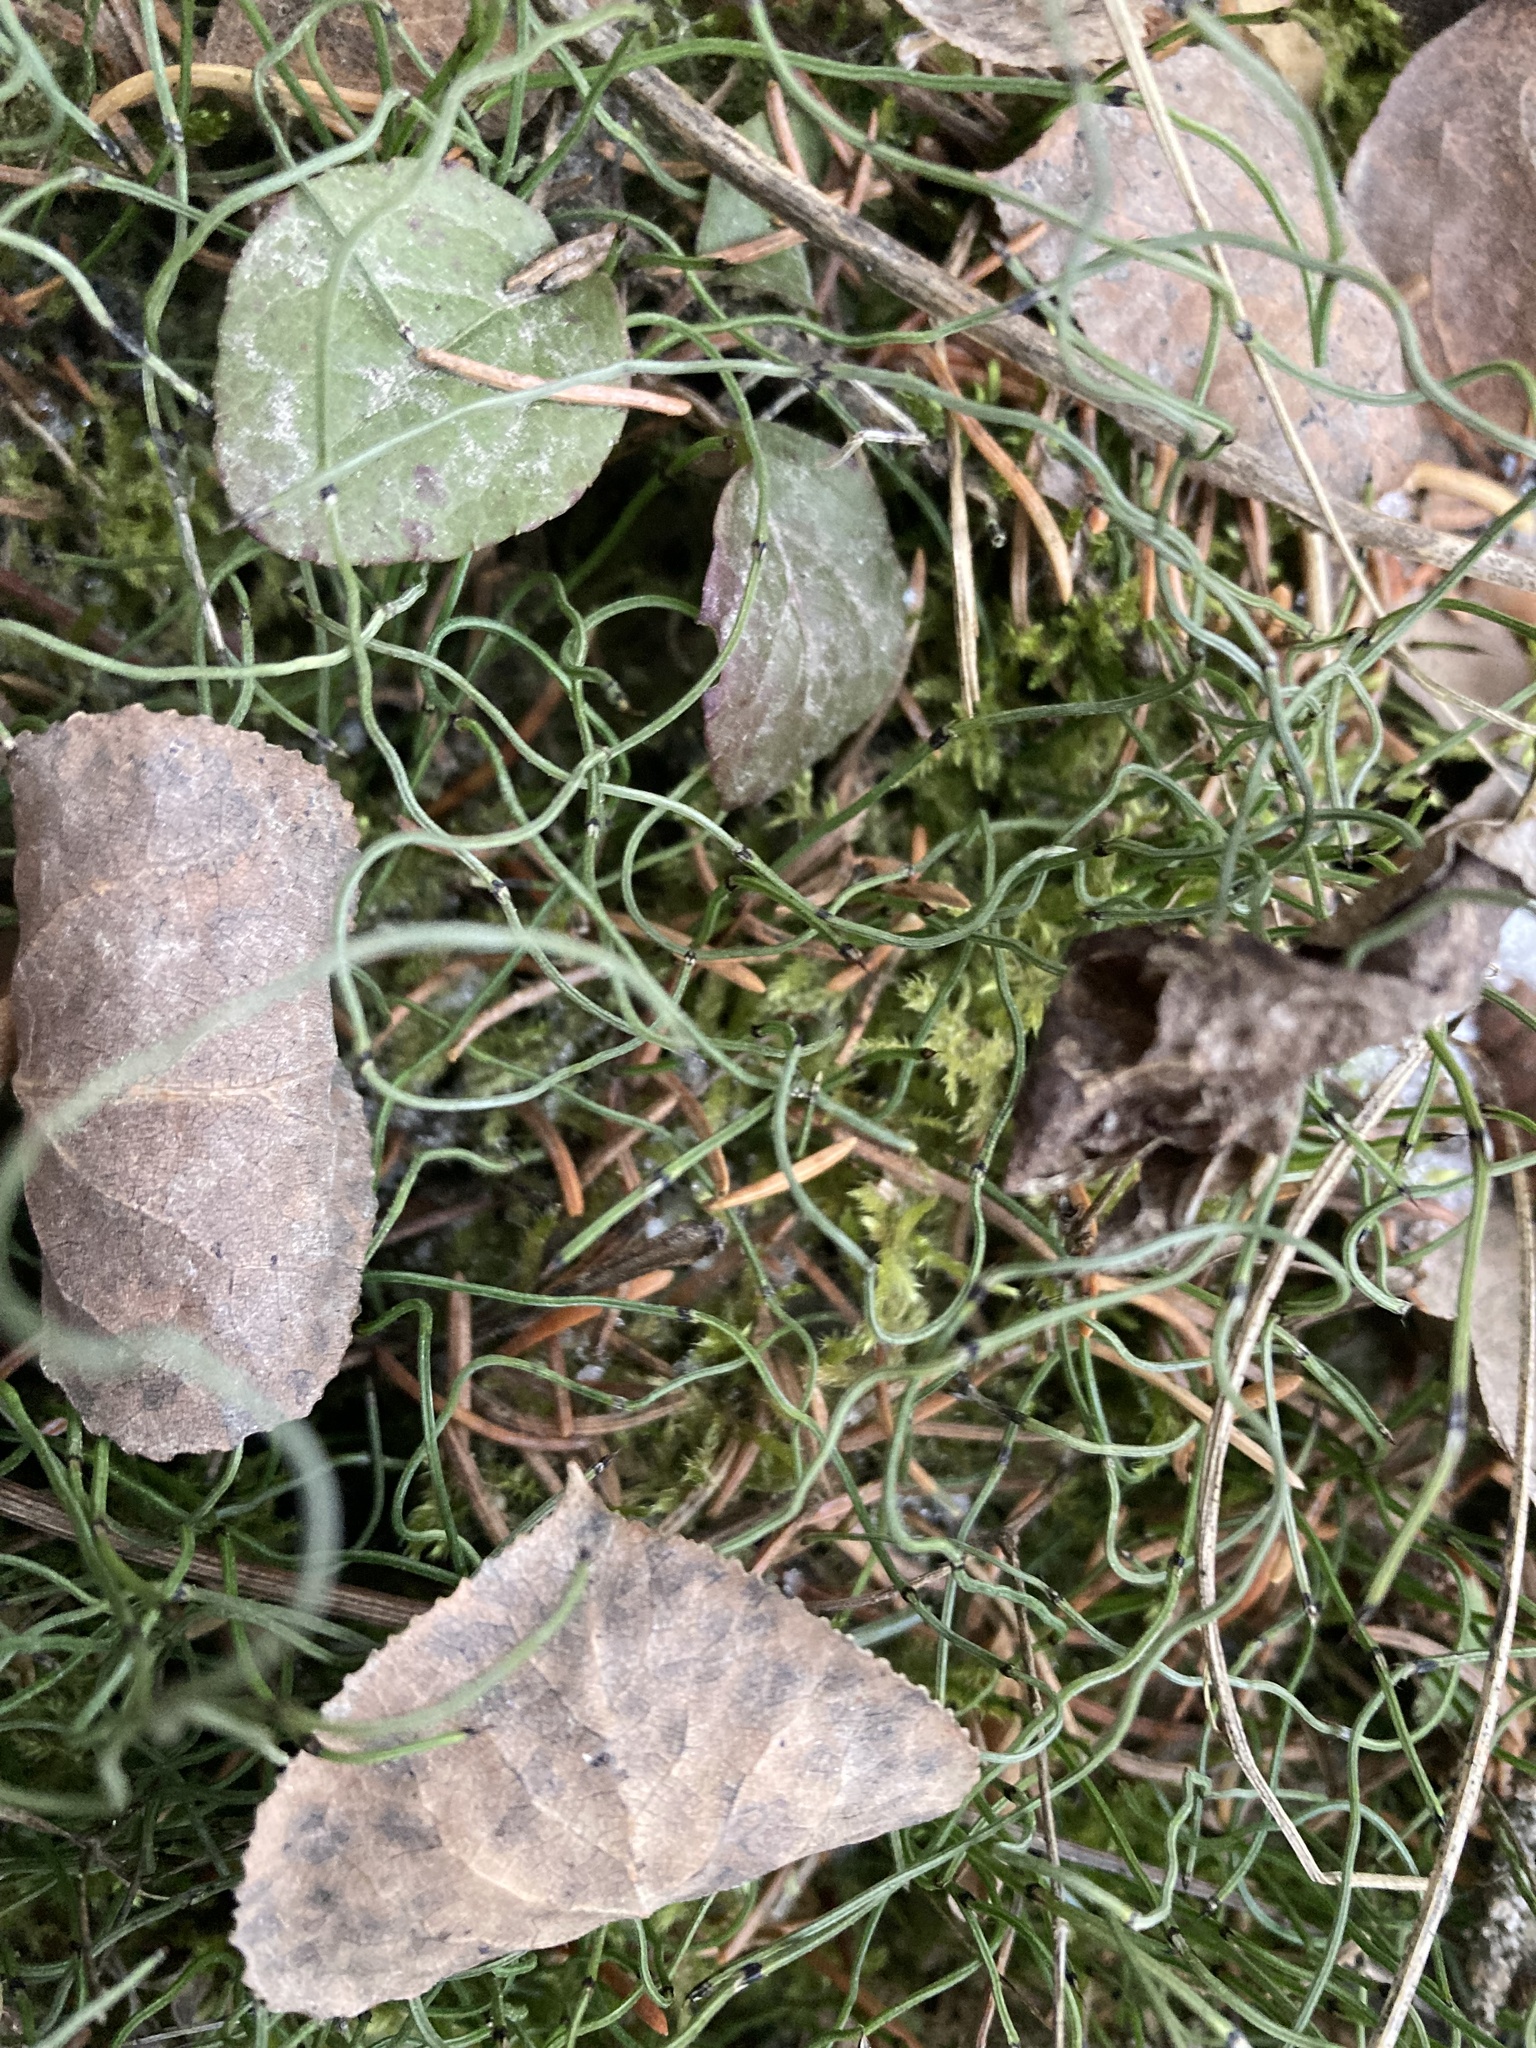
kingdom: Plantae
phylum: Tracheophyta
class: Polypodiopsida
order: Equisetales
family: Equisetaceae
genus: Equisetum
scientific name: Equisetum scirpoides
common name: Delicate horsetail
